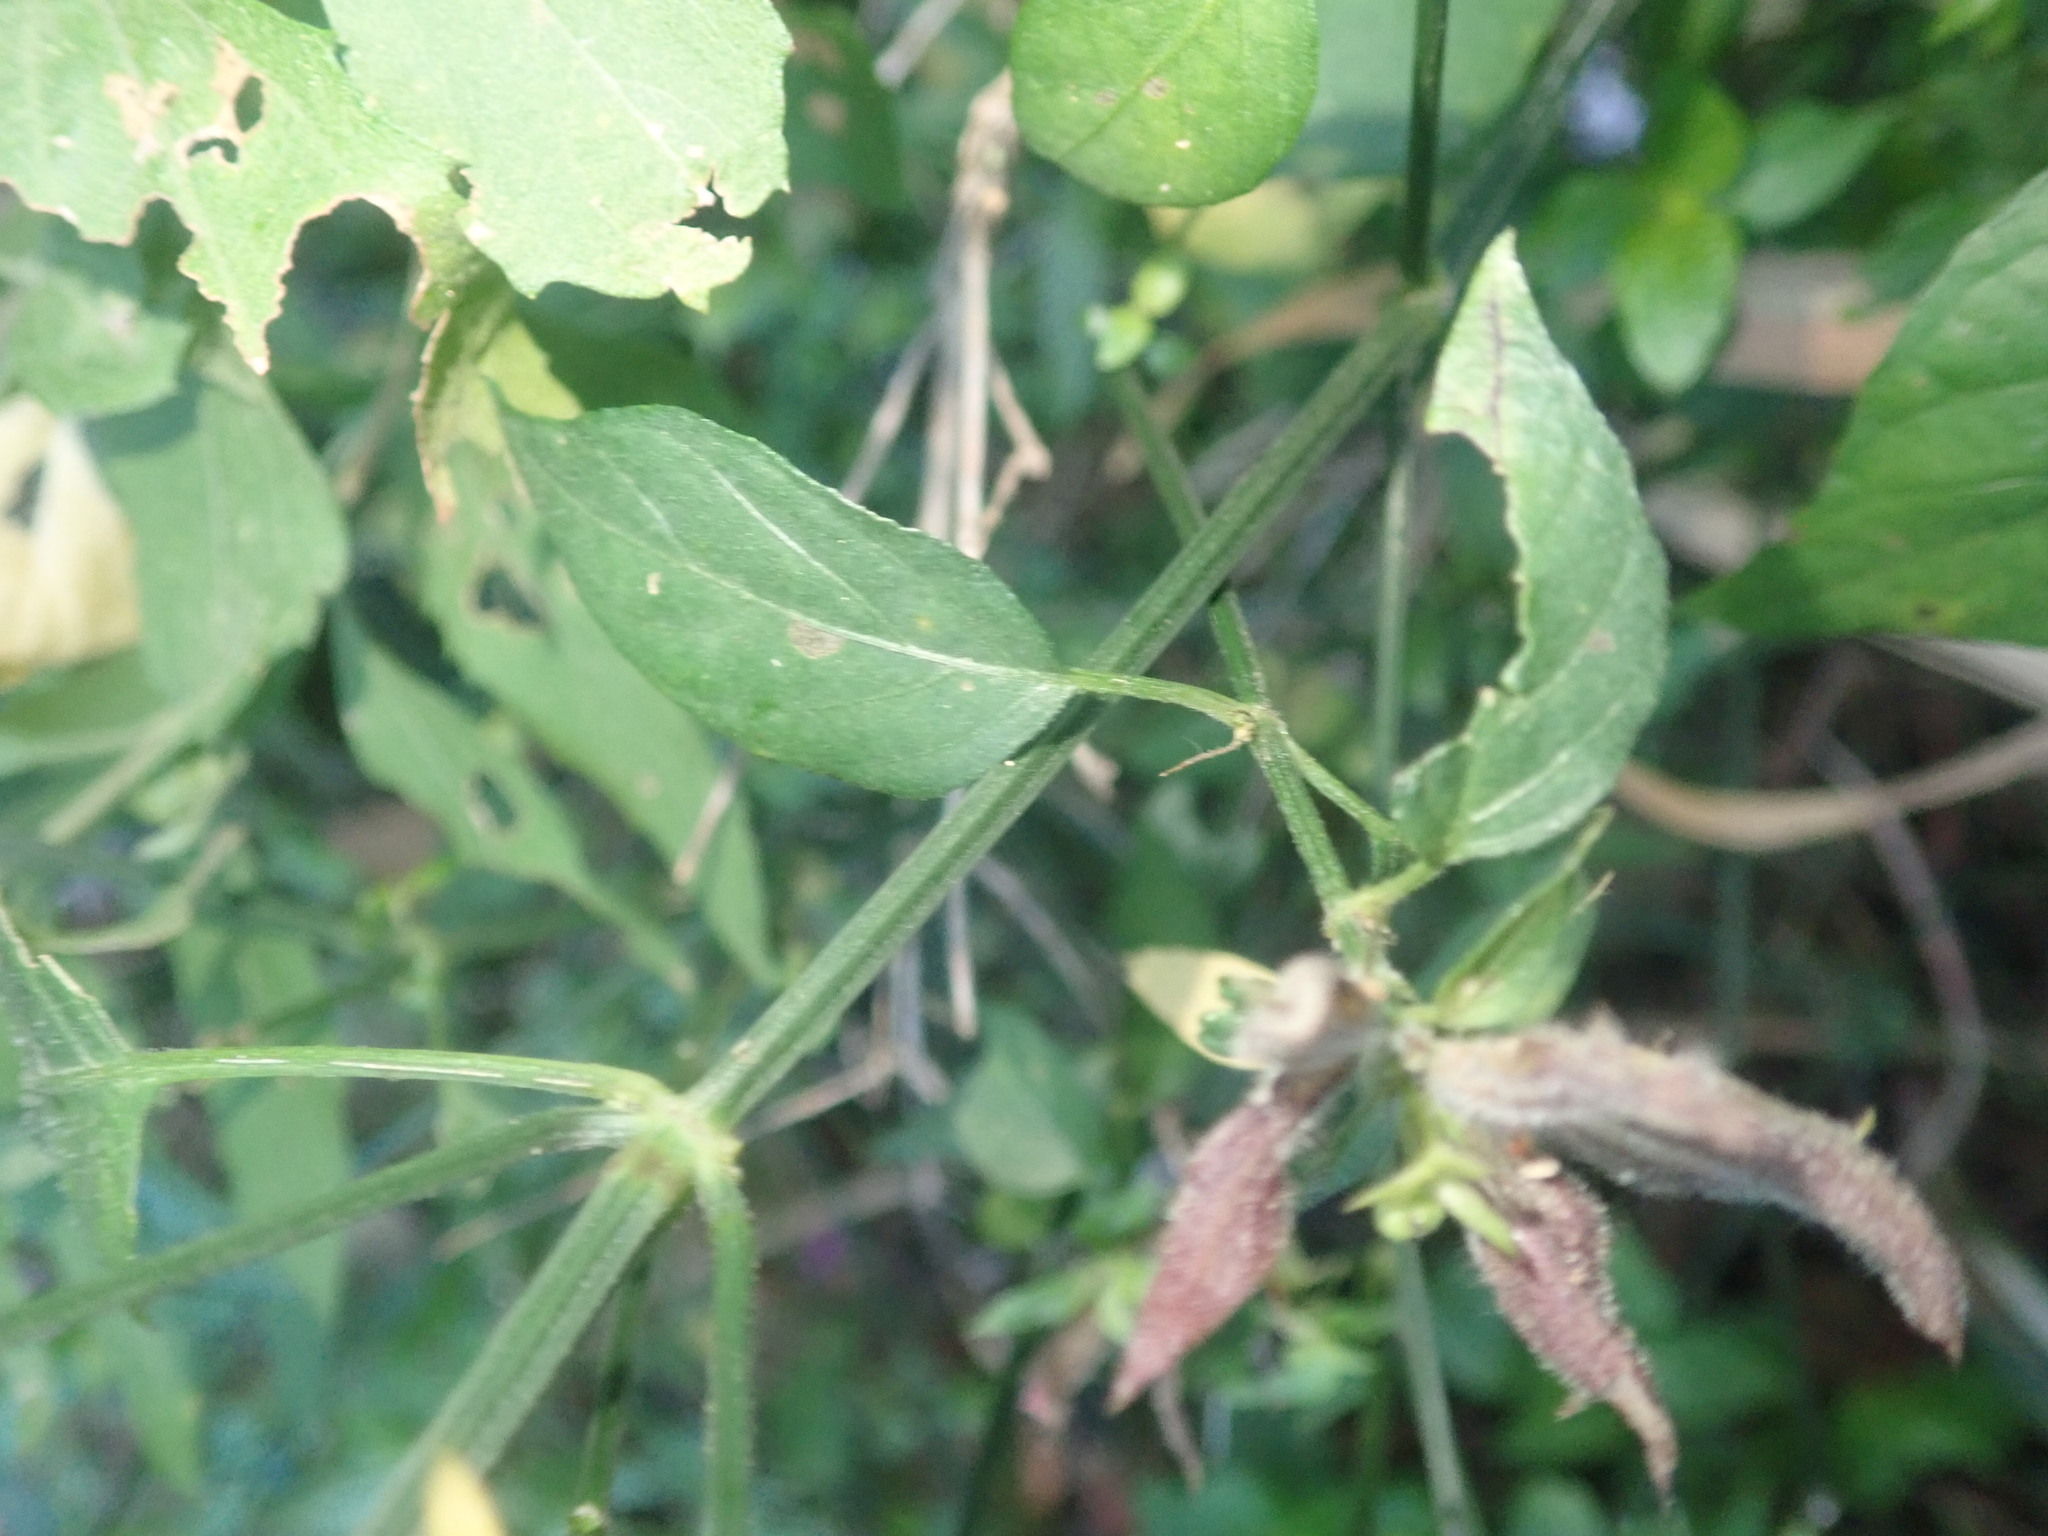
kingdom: Plantae
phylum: Tracheophyta
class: Magnoliopsida
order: Lamiales
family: Acanthaceae
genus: Dicliptera
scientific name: Dicliptera clinopodia
